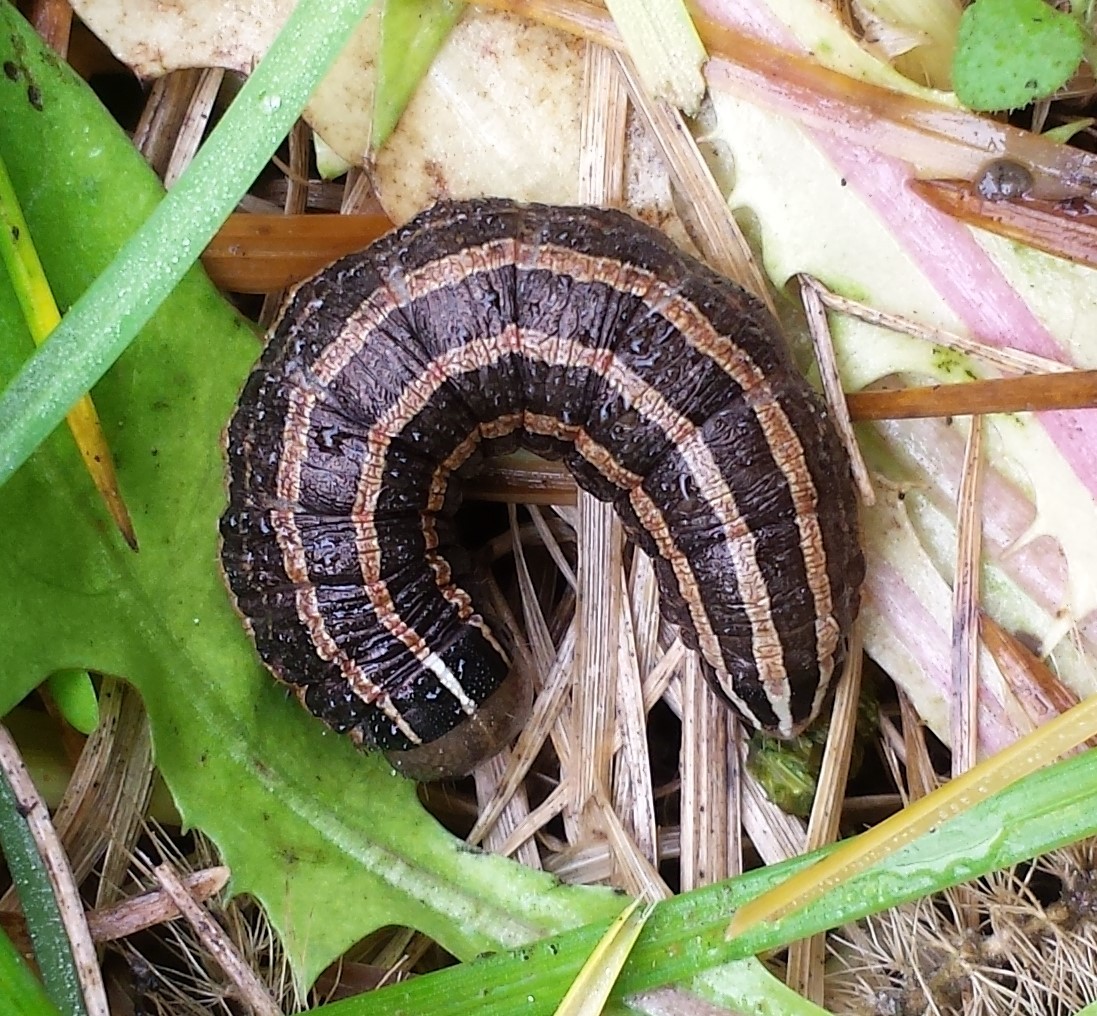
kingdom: Animalia
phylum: Arthropoda
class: Insecta
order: Lepidoptera
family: Noctuidae
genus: Nephelodes
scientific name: Nephelodes minians
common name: Bronzed cutworm
